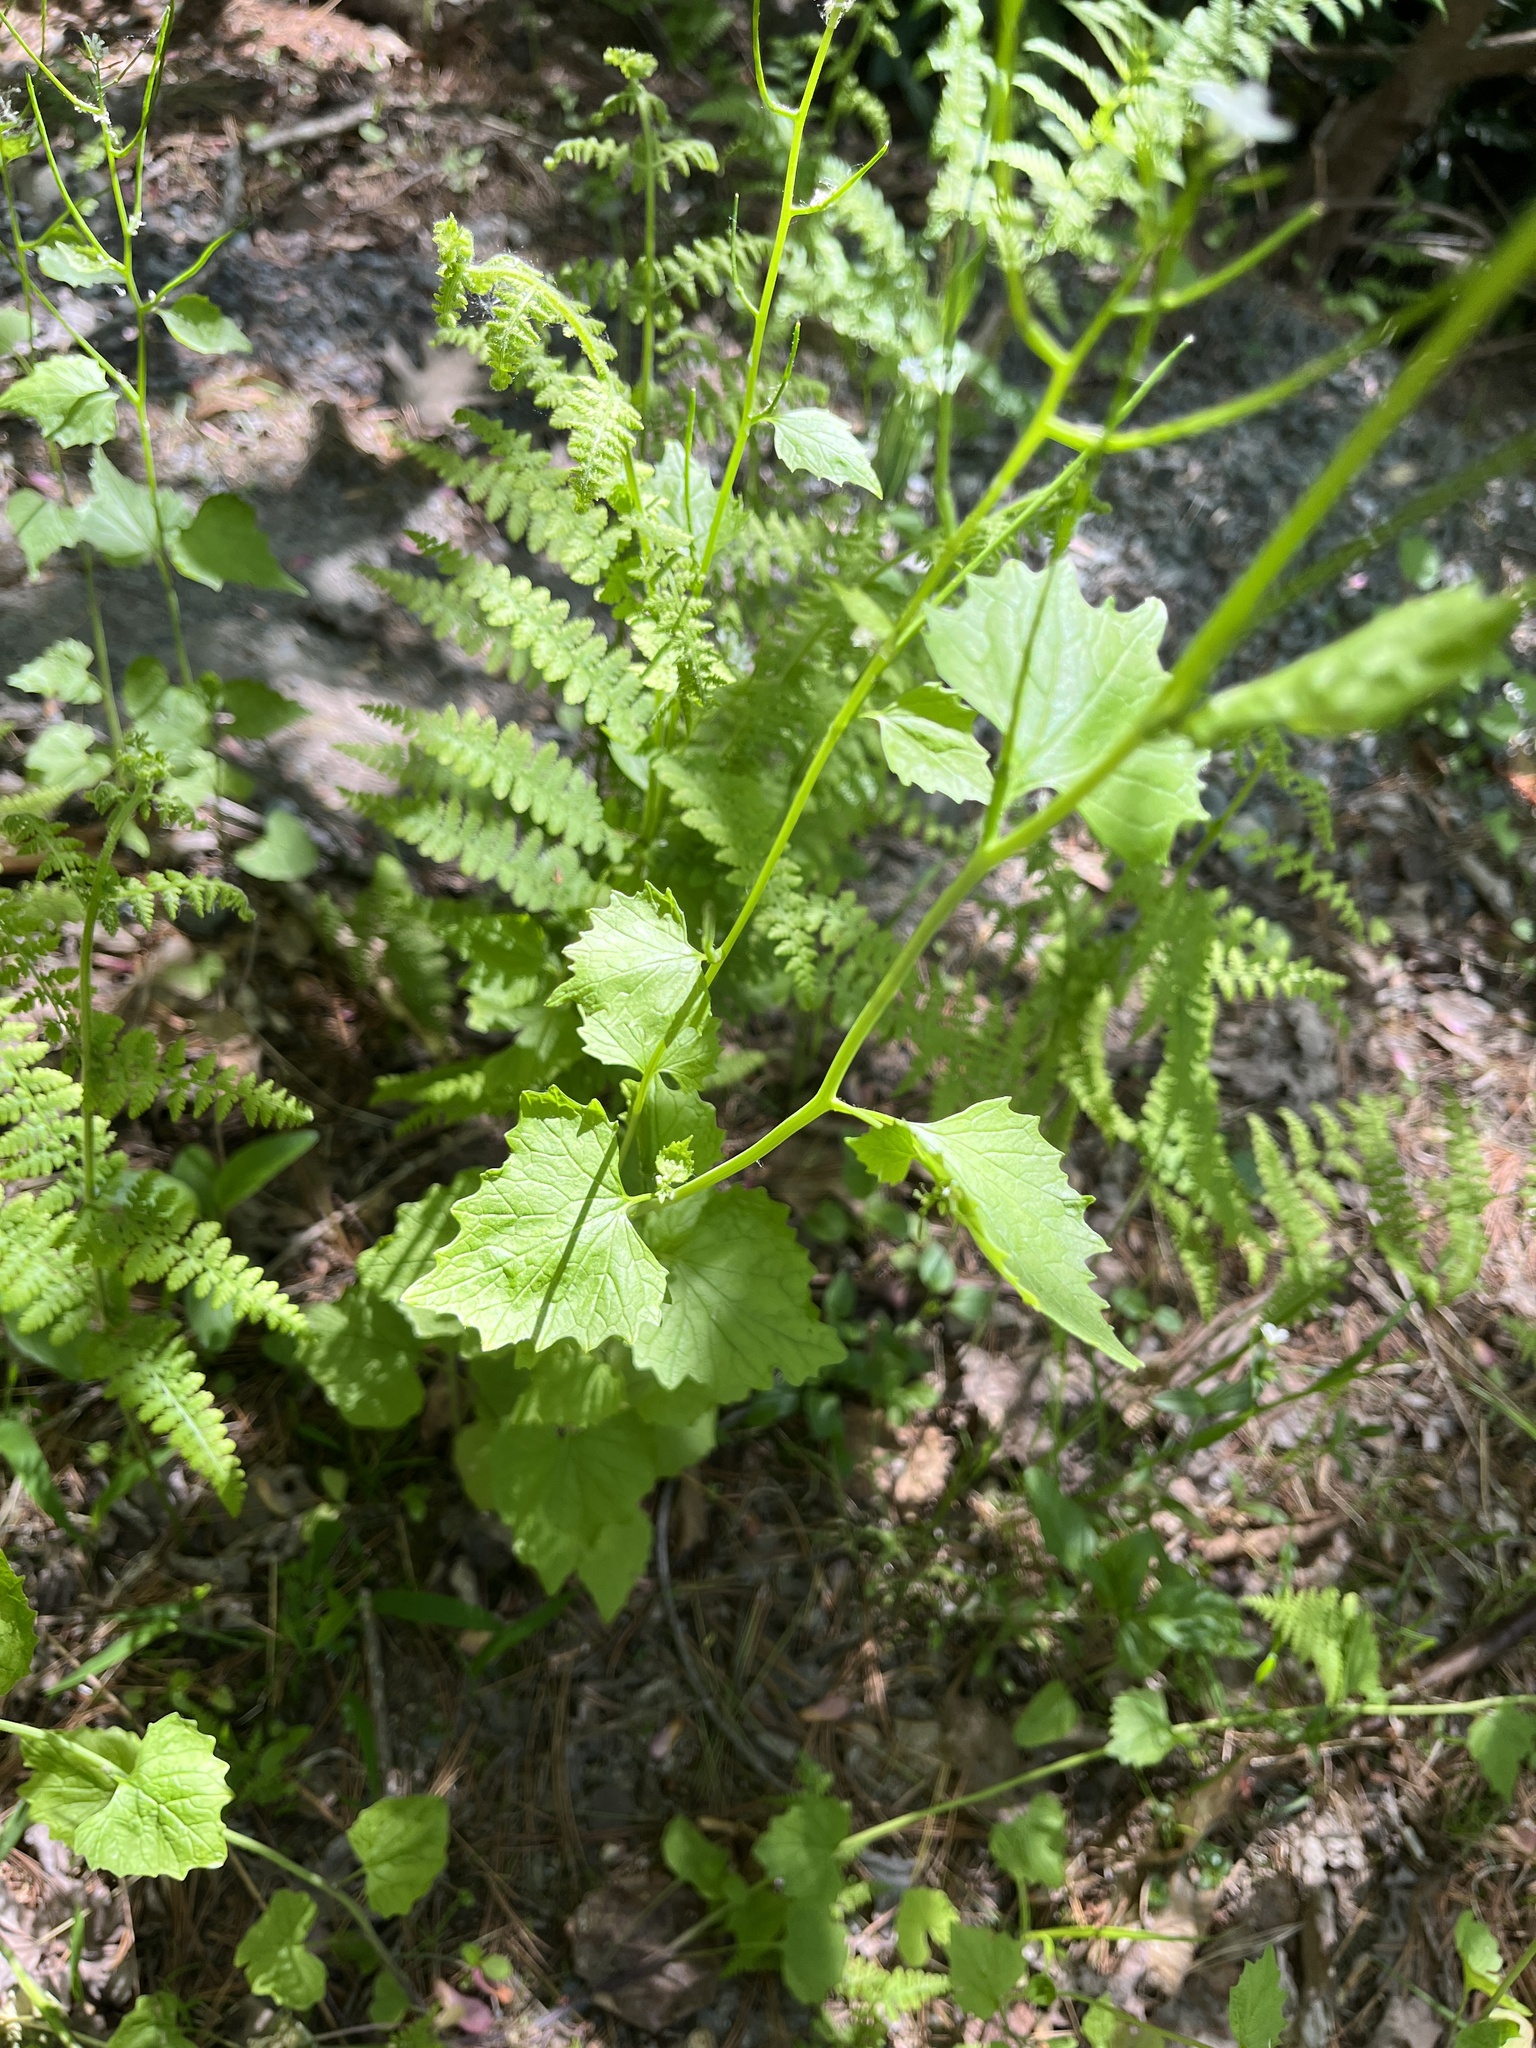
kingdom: Plantae
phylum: Tracheophyta
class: Magnoliopsida
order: Brassicales
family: Brassicaceae
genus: Alliaria
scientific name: Alliaria petiolata
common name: Garlic mustard
